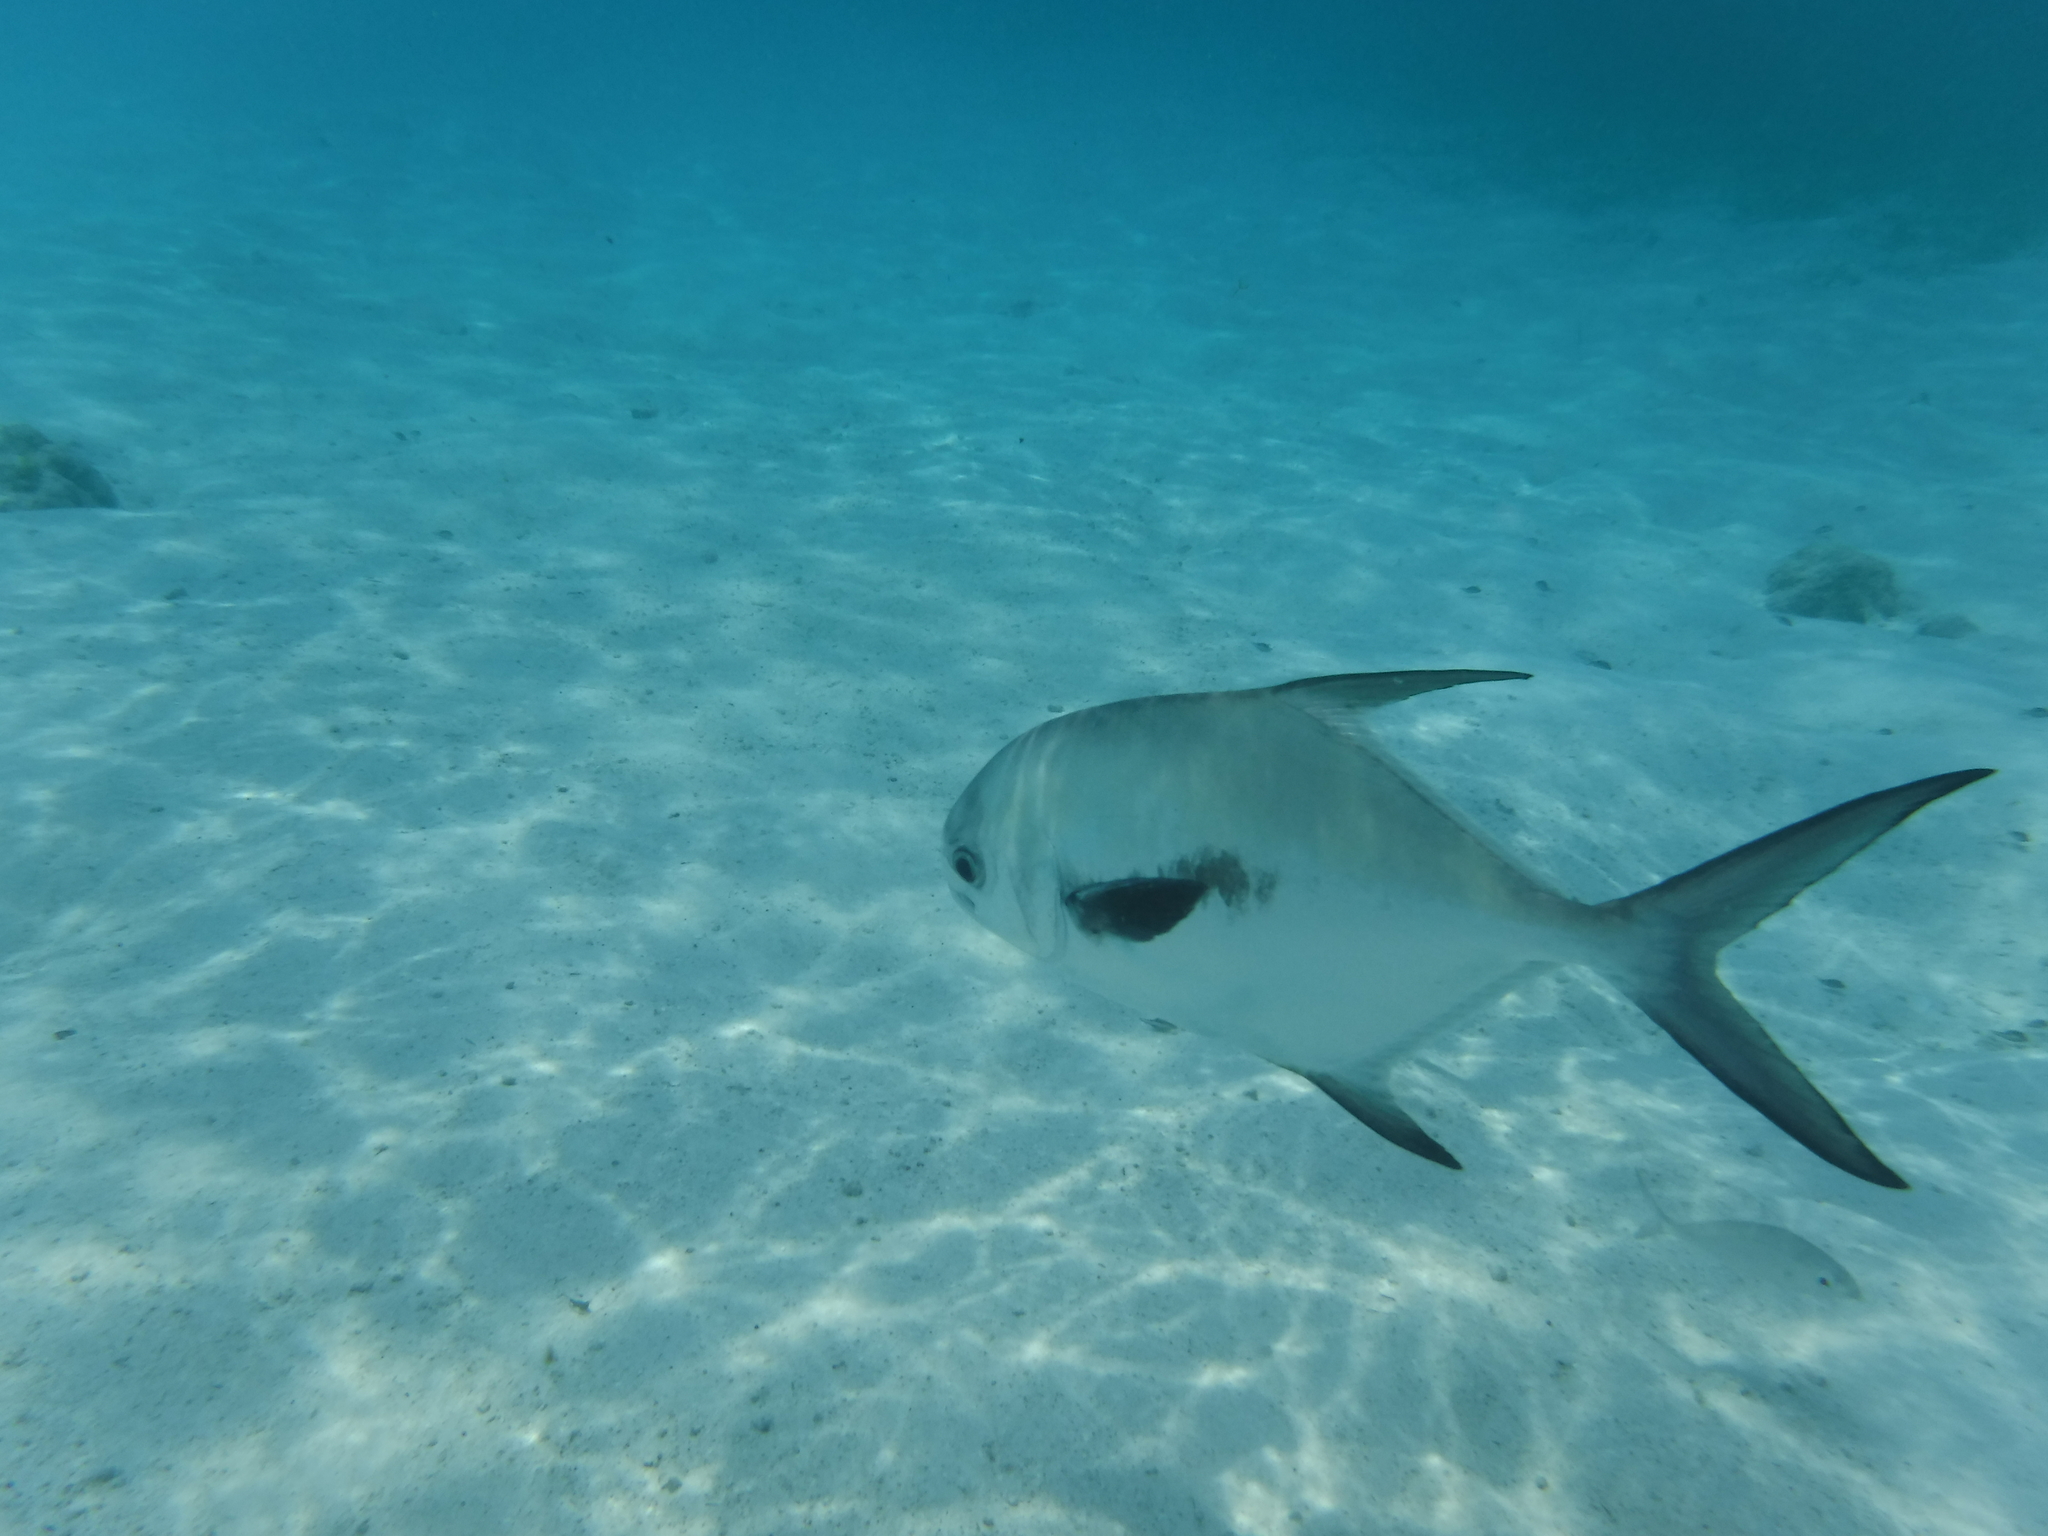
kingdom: Animalia
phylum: Chordata
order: Perciformes
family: Carangidae
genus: Trachinotus
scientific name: Trachinotus falcatus
